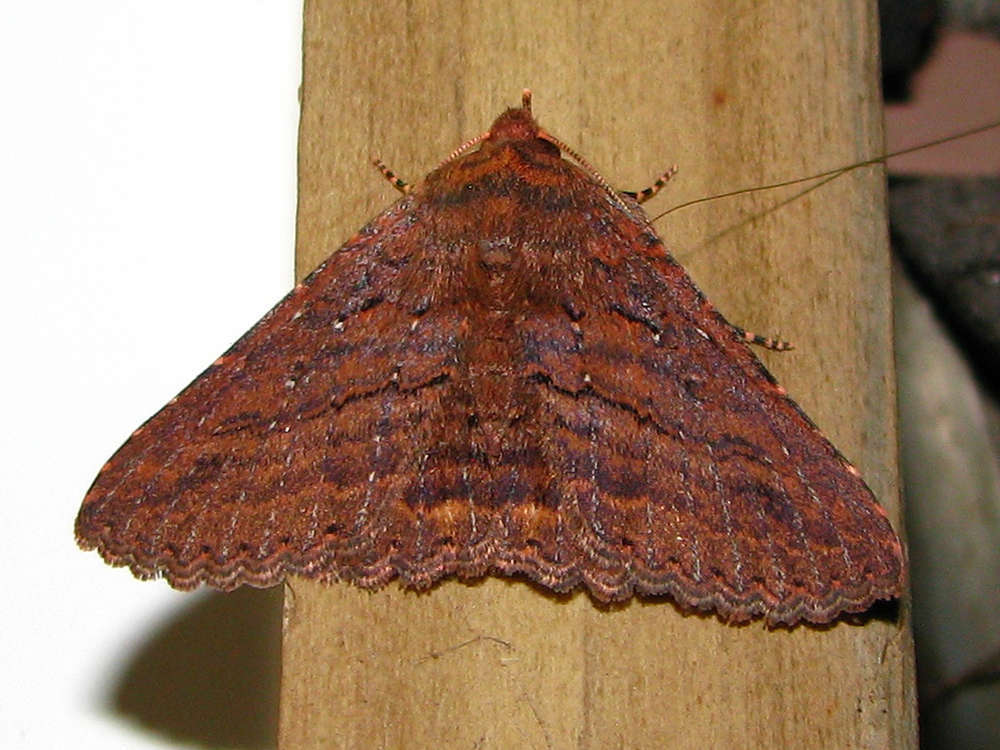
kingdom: Animalia
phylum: Arthropoda
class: Insecta
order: Lepidoptera
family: Erebidae
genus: Praxis
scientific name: Praxis porphyretica
